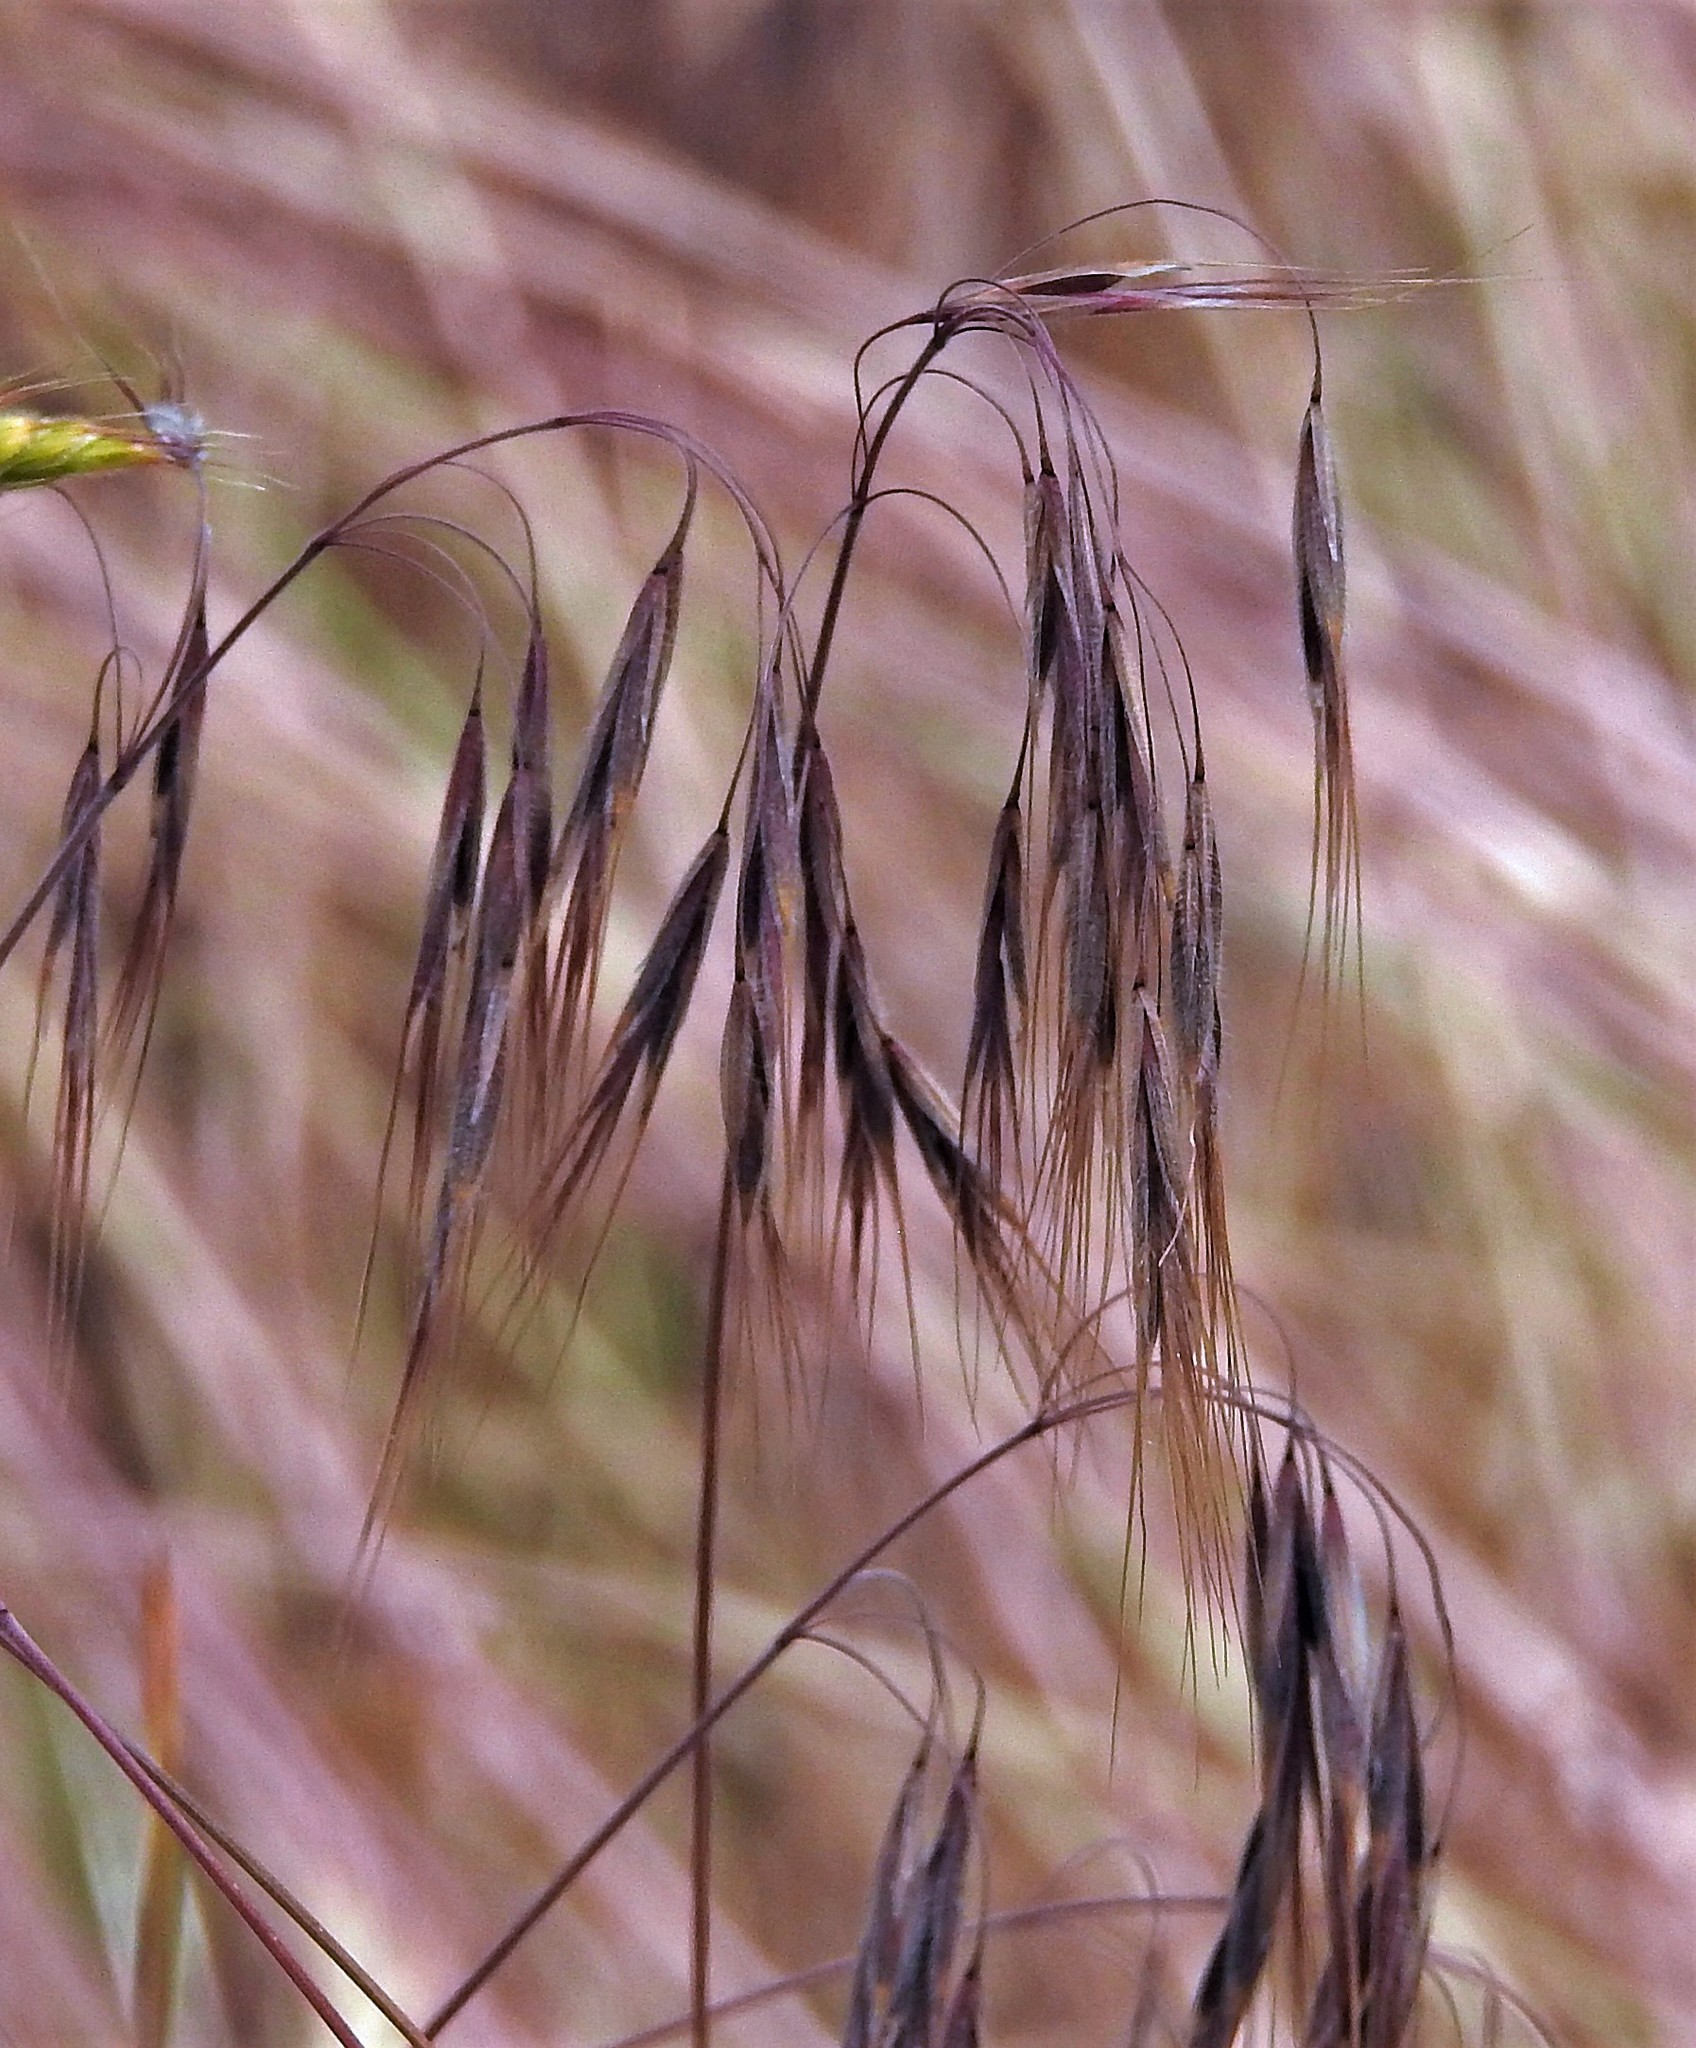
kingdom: Plantae
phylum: Tracheophyta
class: Liliopsida
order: Poales
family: Poaceae
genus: Bromus
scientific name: Bromus tectorum
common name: Cheatgrass
